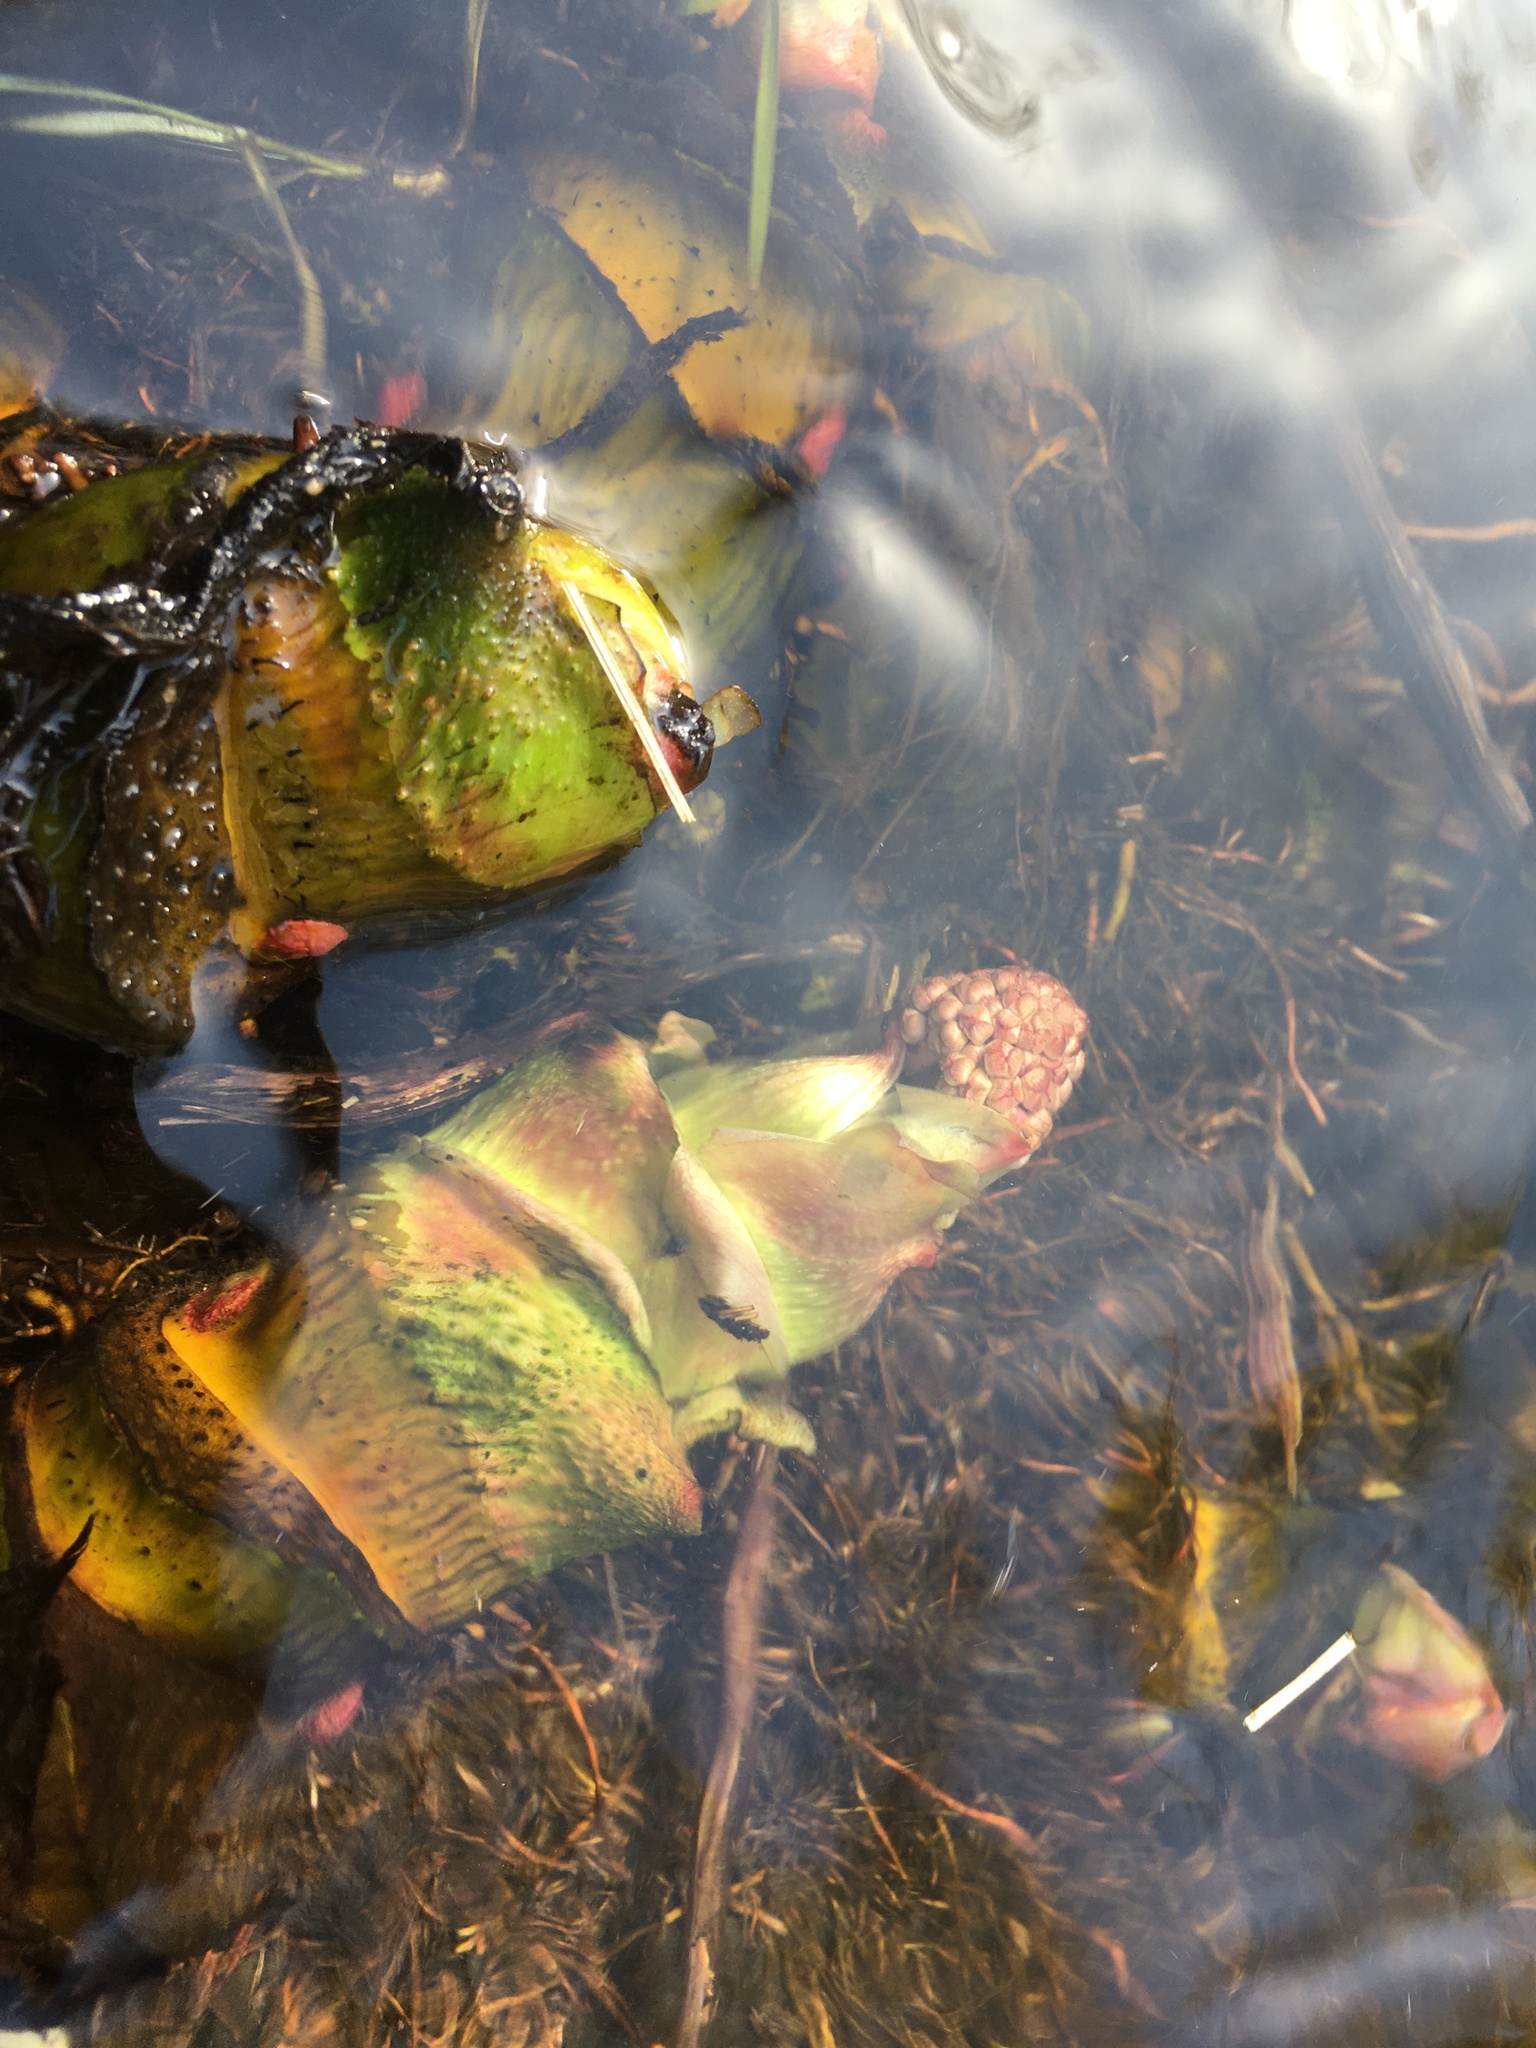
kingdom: Plantae
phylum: Tracheophyta
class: Magnoliopsida
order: Saxifragales
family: Saxifragaceae
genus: Darmera
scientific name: Darmera peltata
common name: Indian-rhubarb
